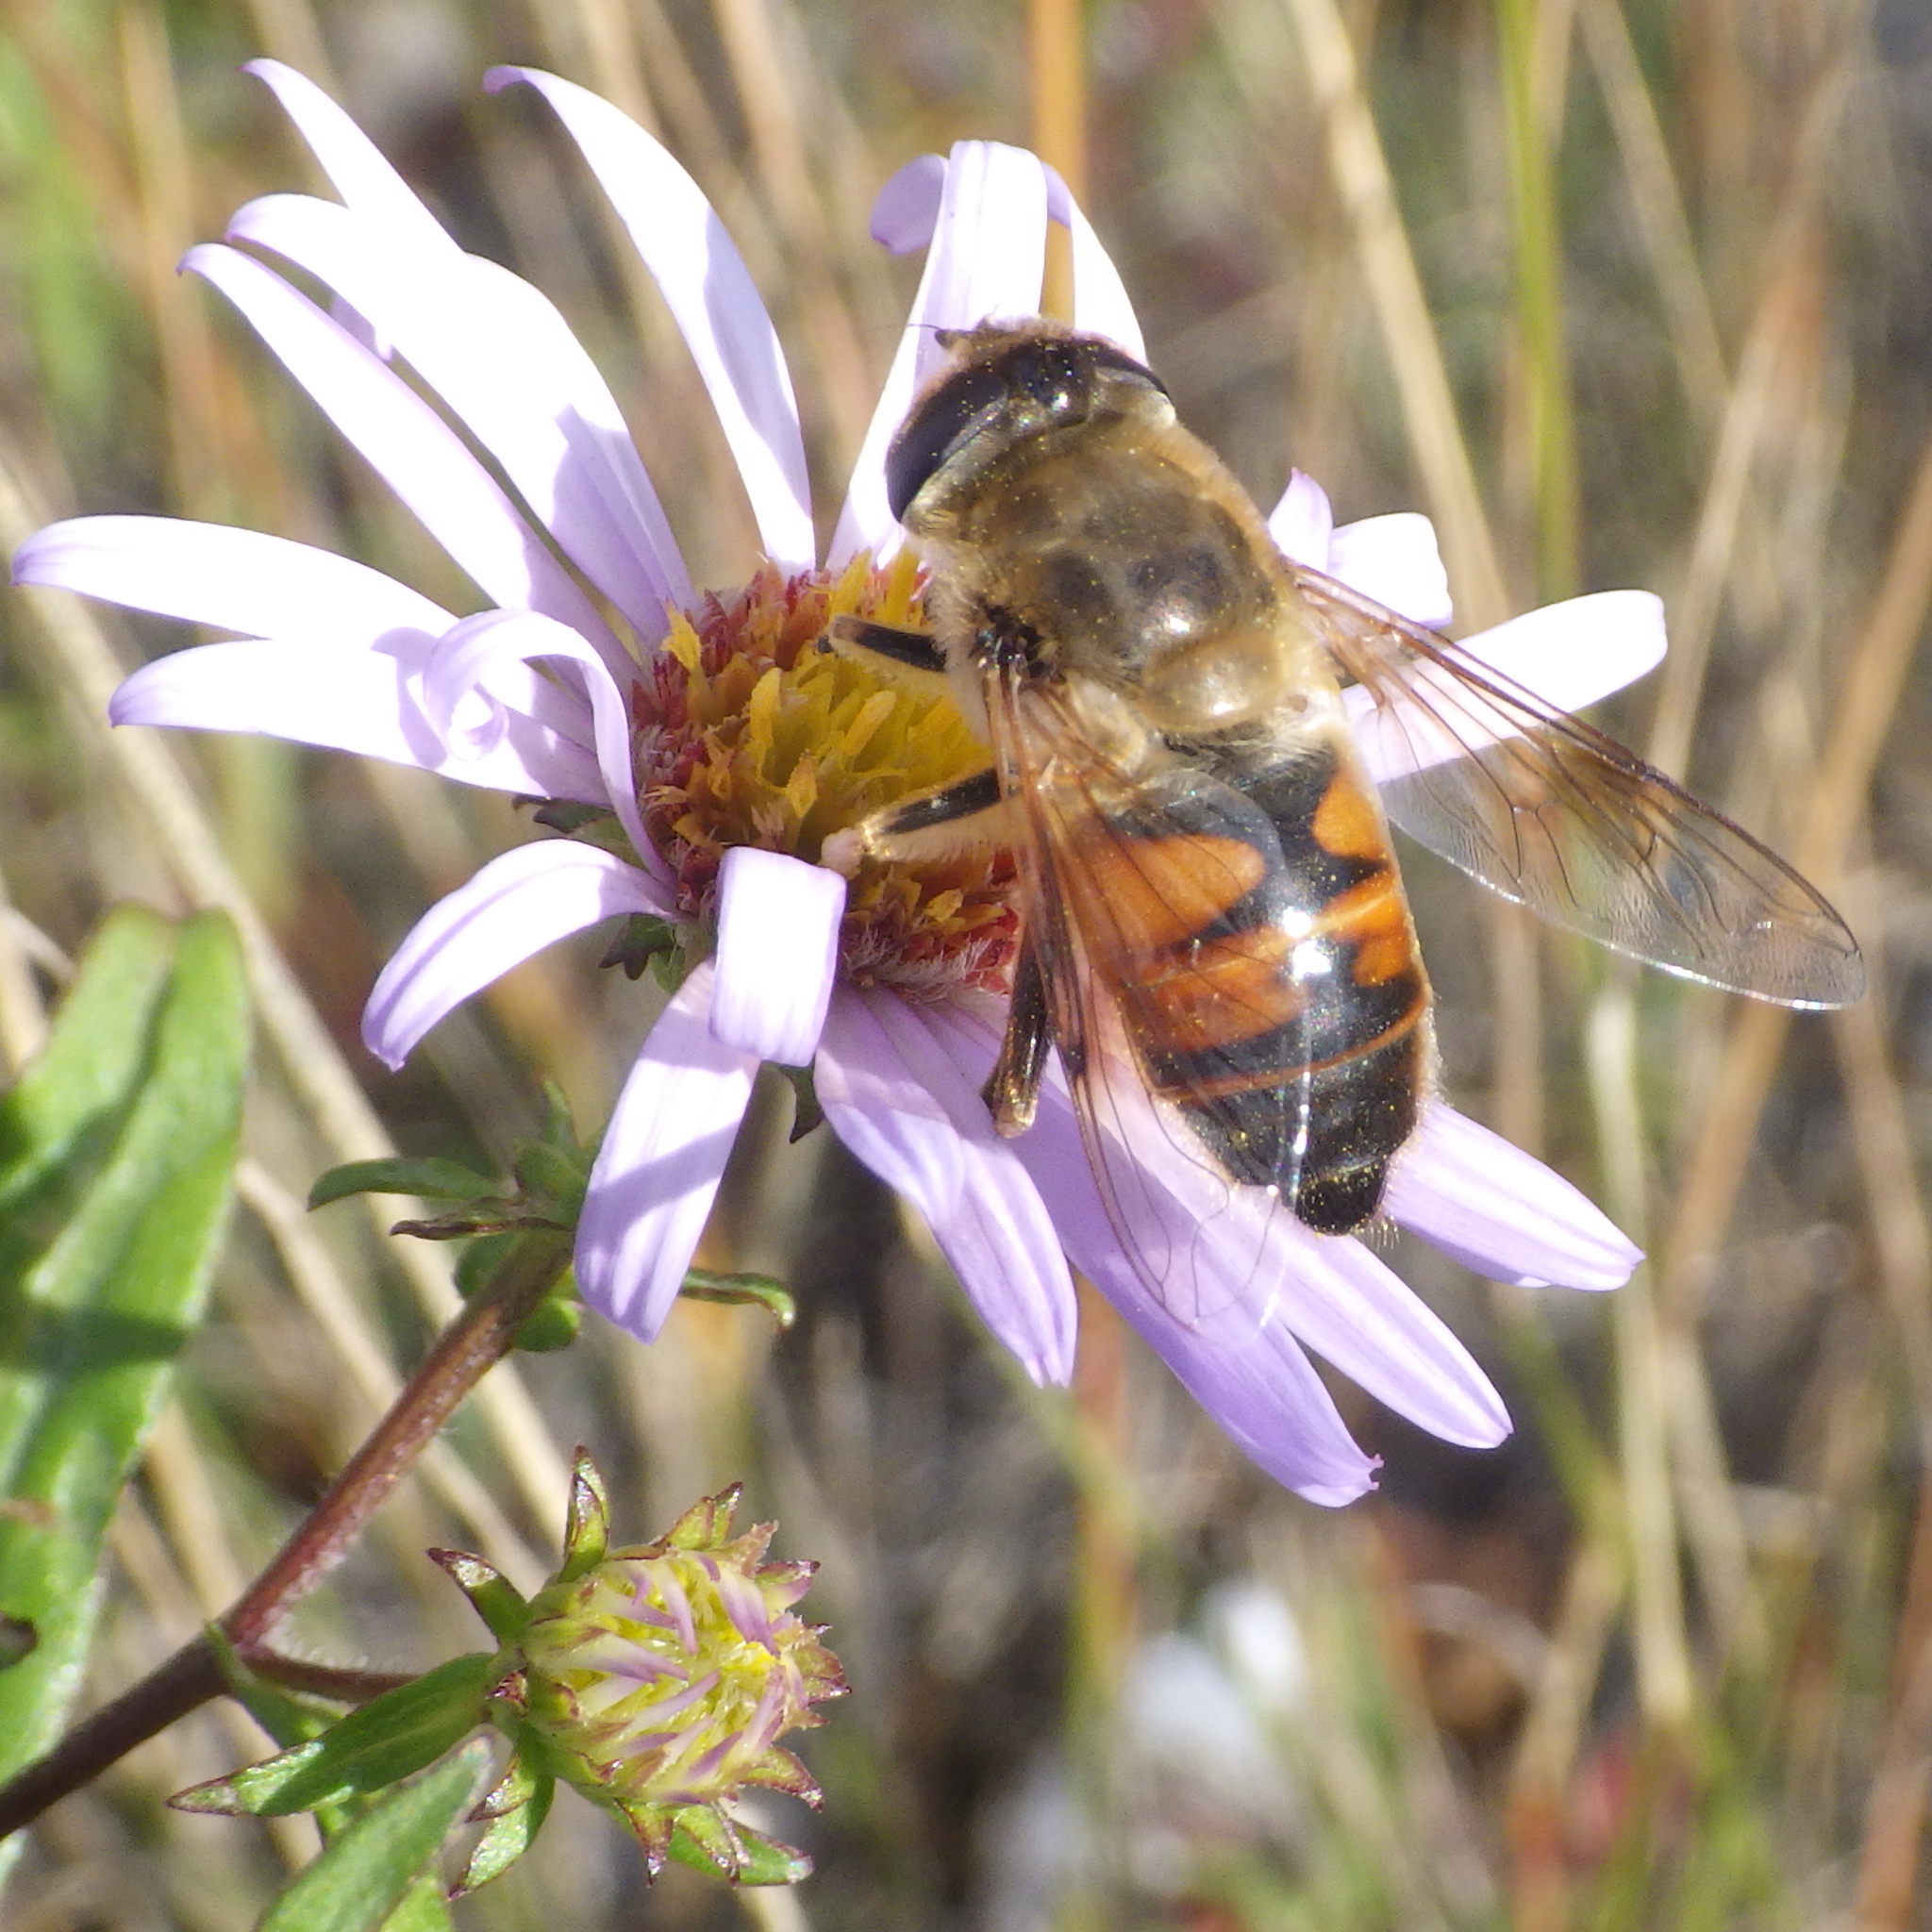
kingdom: Animalia
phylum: Arthropoda
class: Insecta
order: Diptera
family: Syrphidae
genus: Eristalis
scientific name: Eristalis tenax
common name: Drone fly
